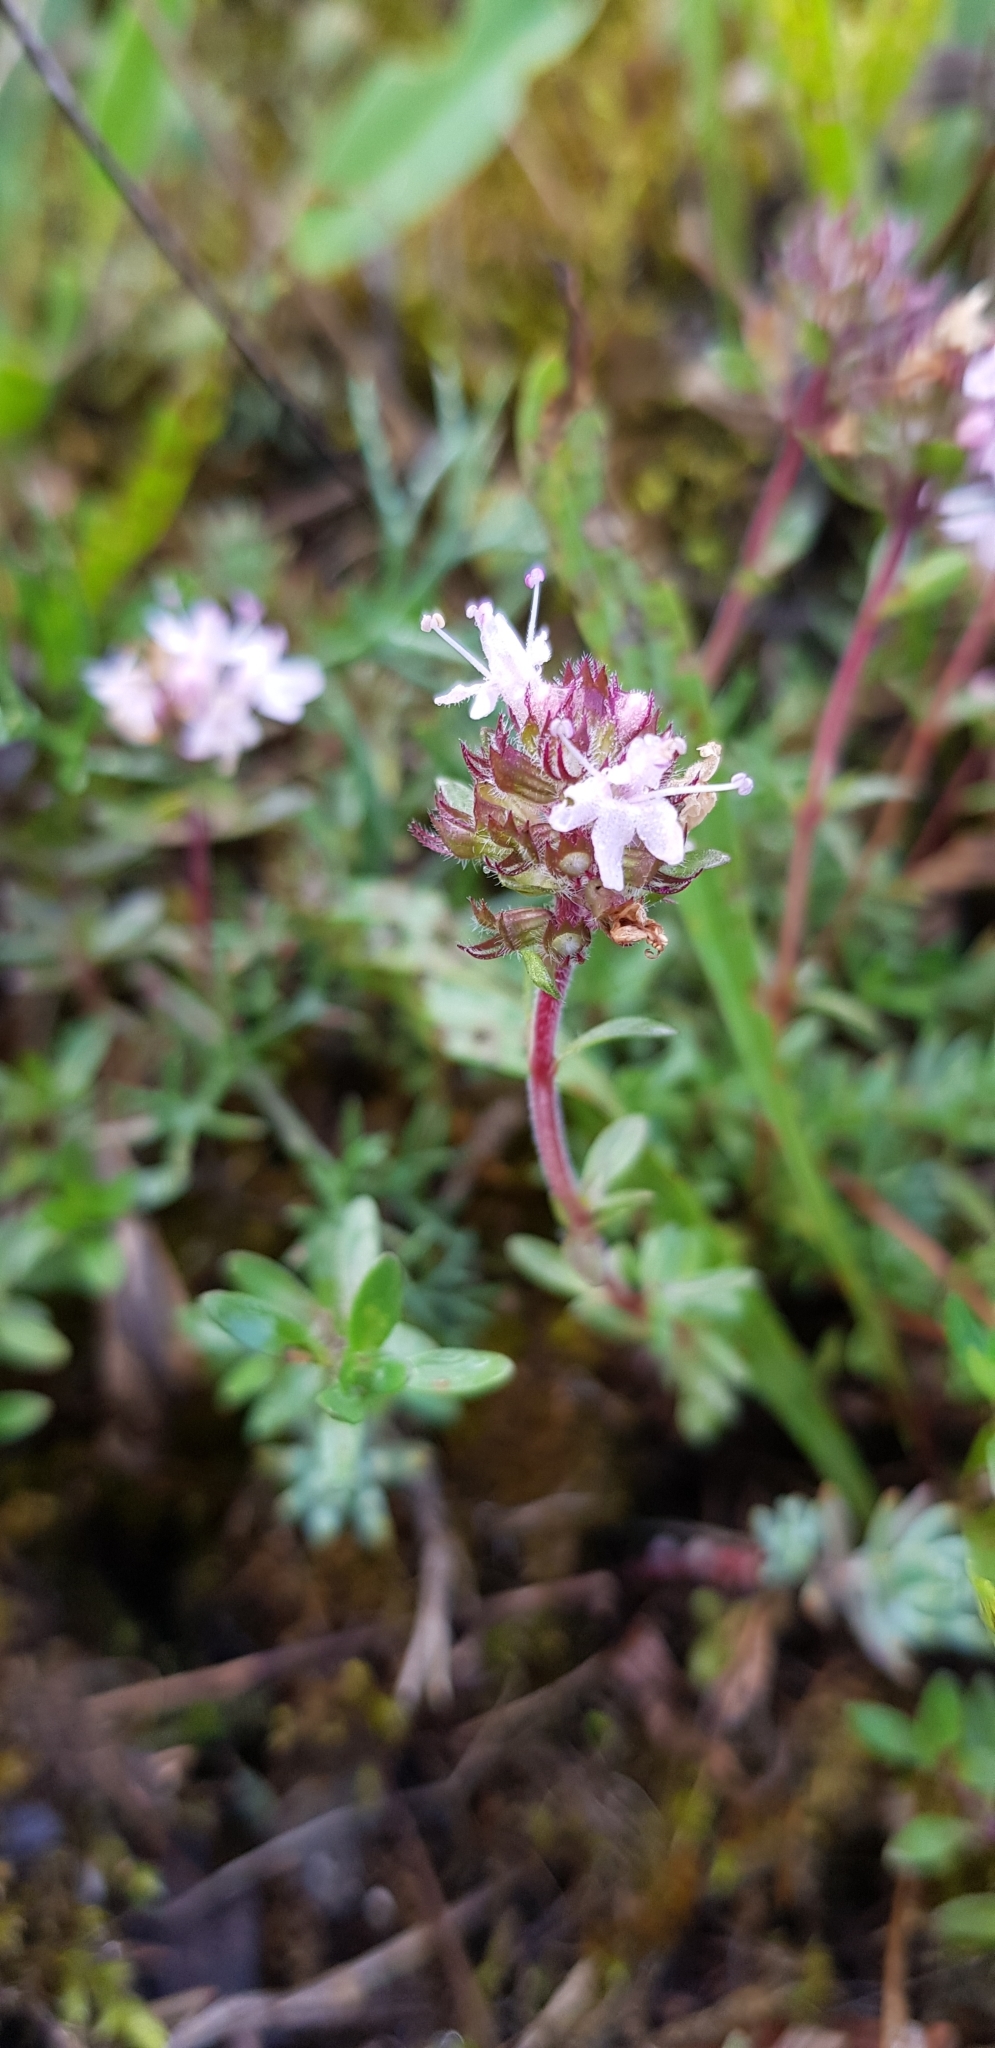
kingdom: Plantae
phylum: Tracheophyta
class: Magnoliopsida
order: Lamiales
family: Lamiaceae
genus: Thymus
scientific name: Thymus serpyllum
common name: Breckland thyme
